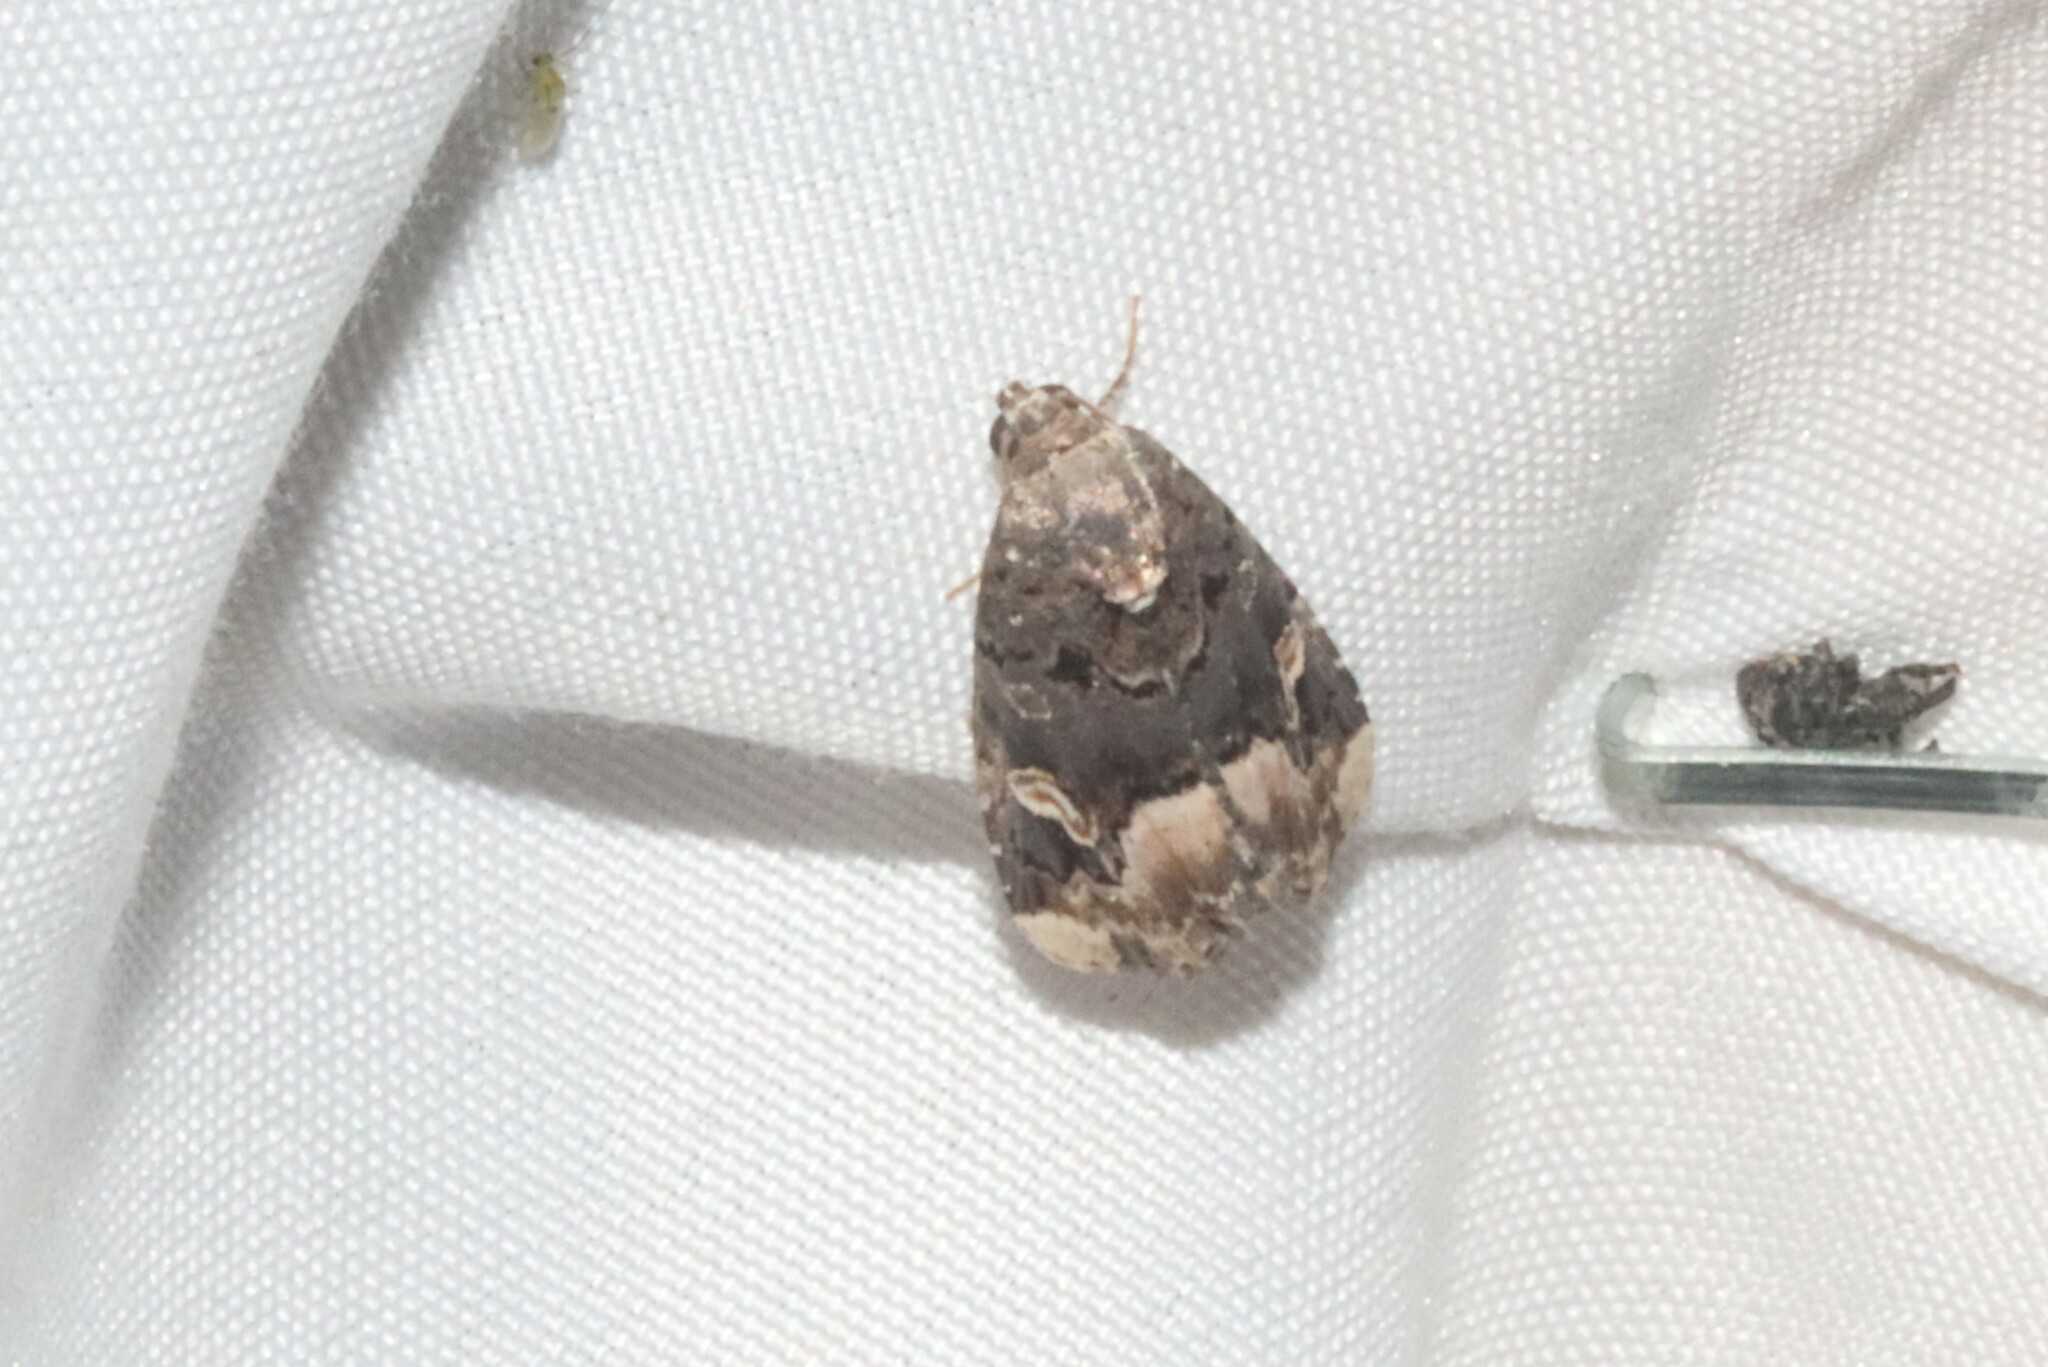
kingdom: Animalia
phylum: Arthropoda
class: Insecta
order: Lepidoptera
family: Noctuidae
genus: Homophoberia
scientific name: Homophoberia apicosa
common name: Black wedge-spot
